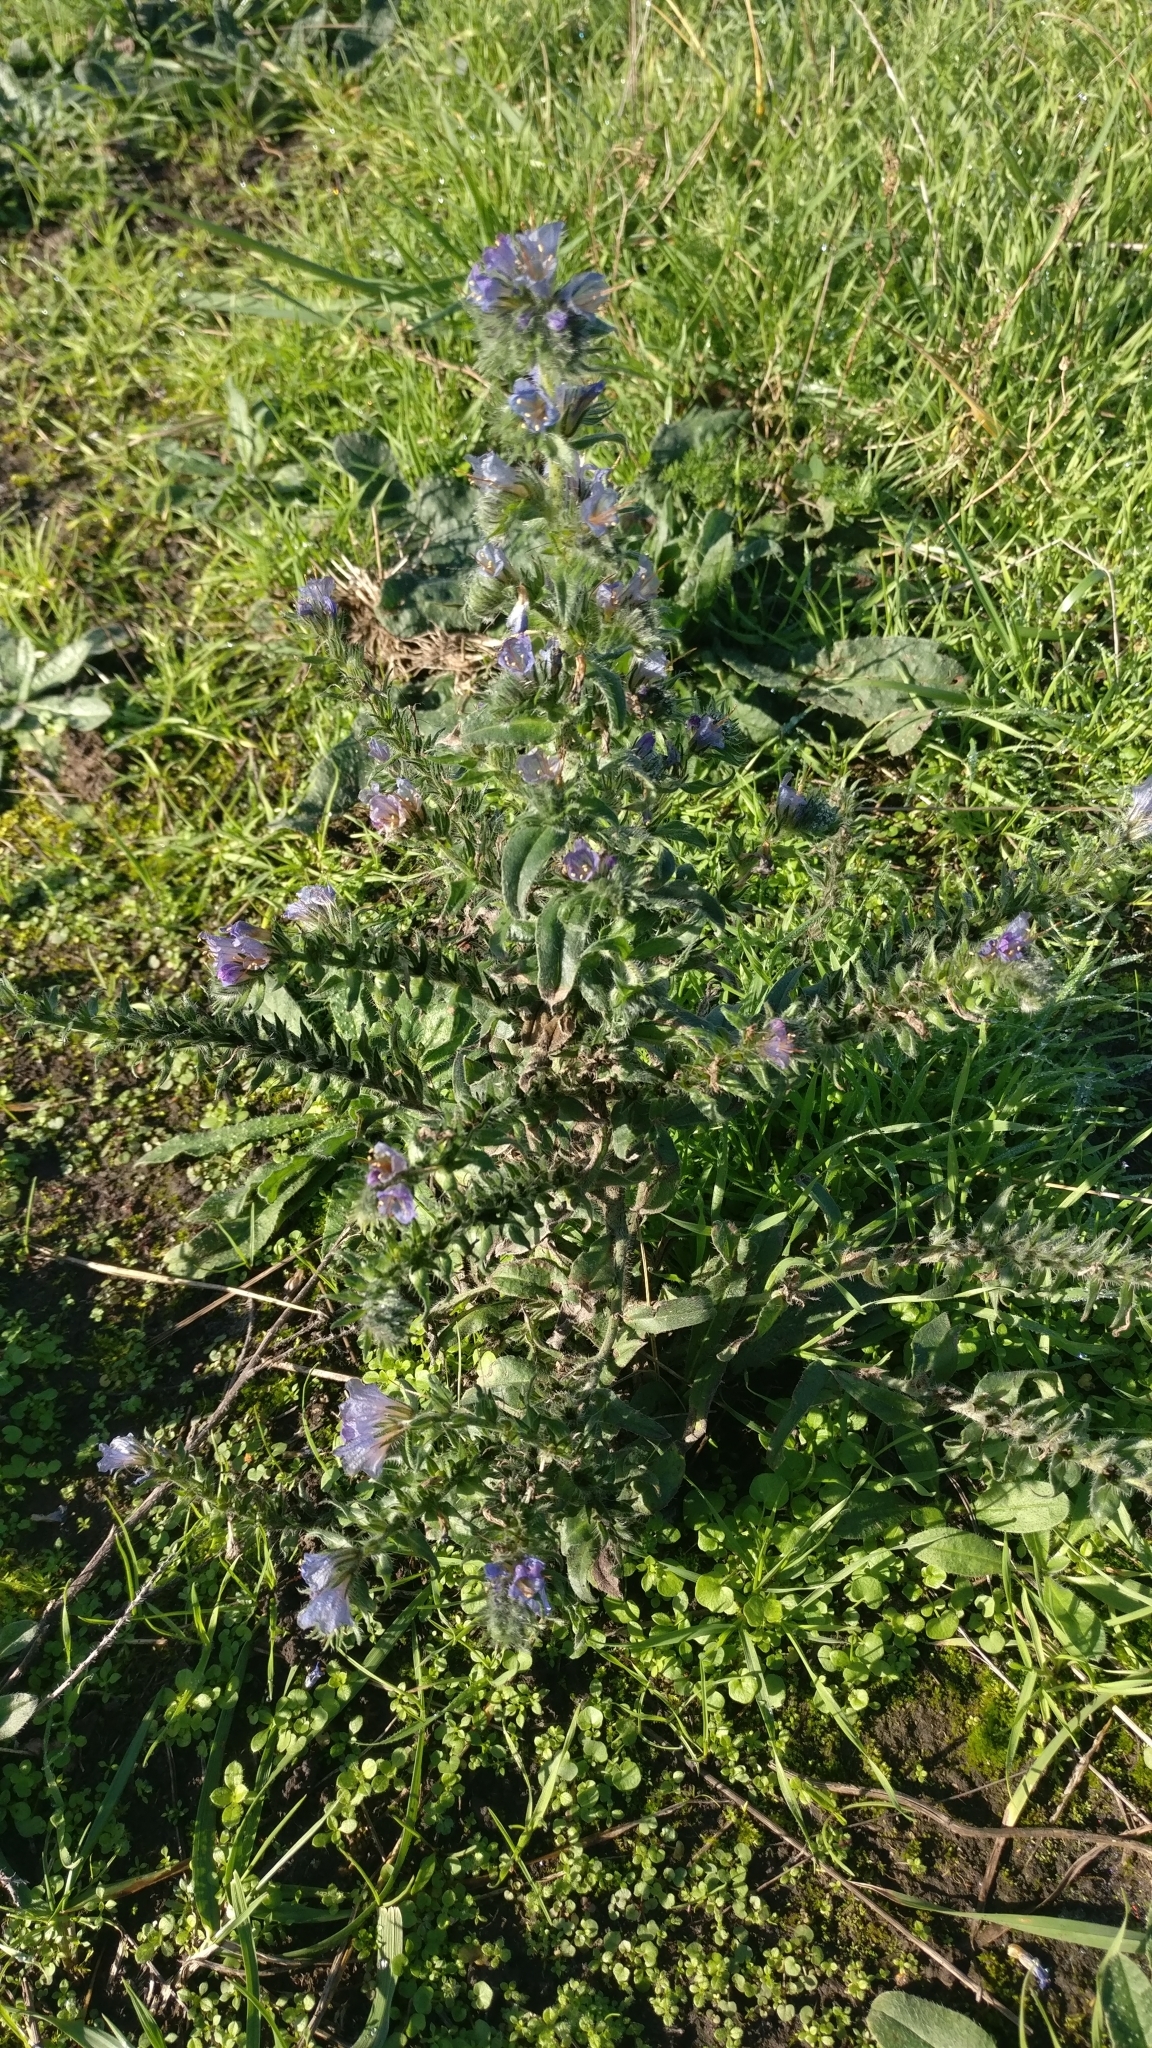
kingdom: Plantae
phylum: Tracheophyta
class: Magnoliopsida
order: Boraginales
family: Boraginaceae
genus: Echium
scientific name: Echium vulgare
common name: Common viper's bugloss
